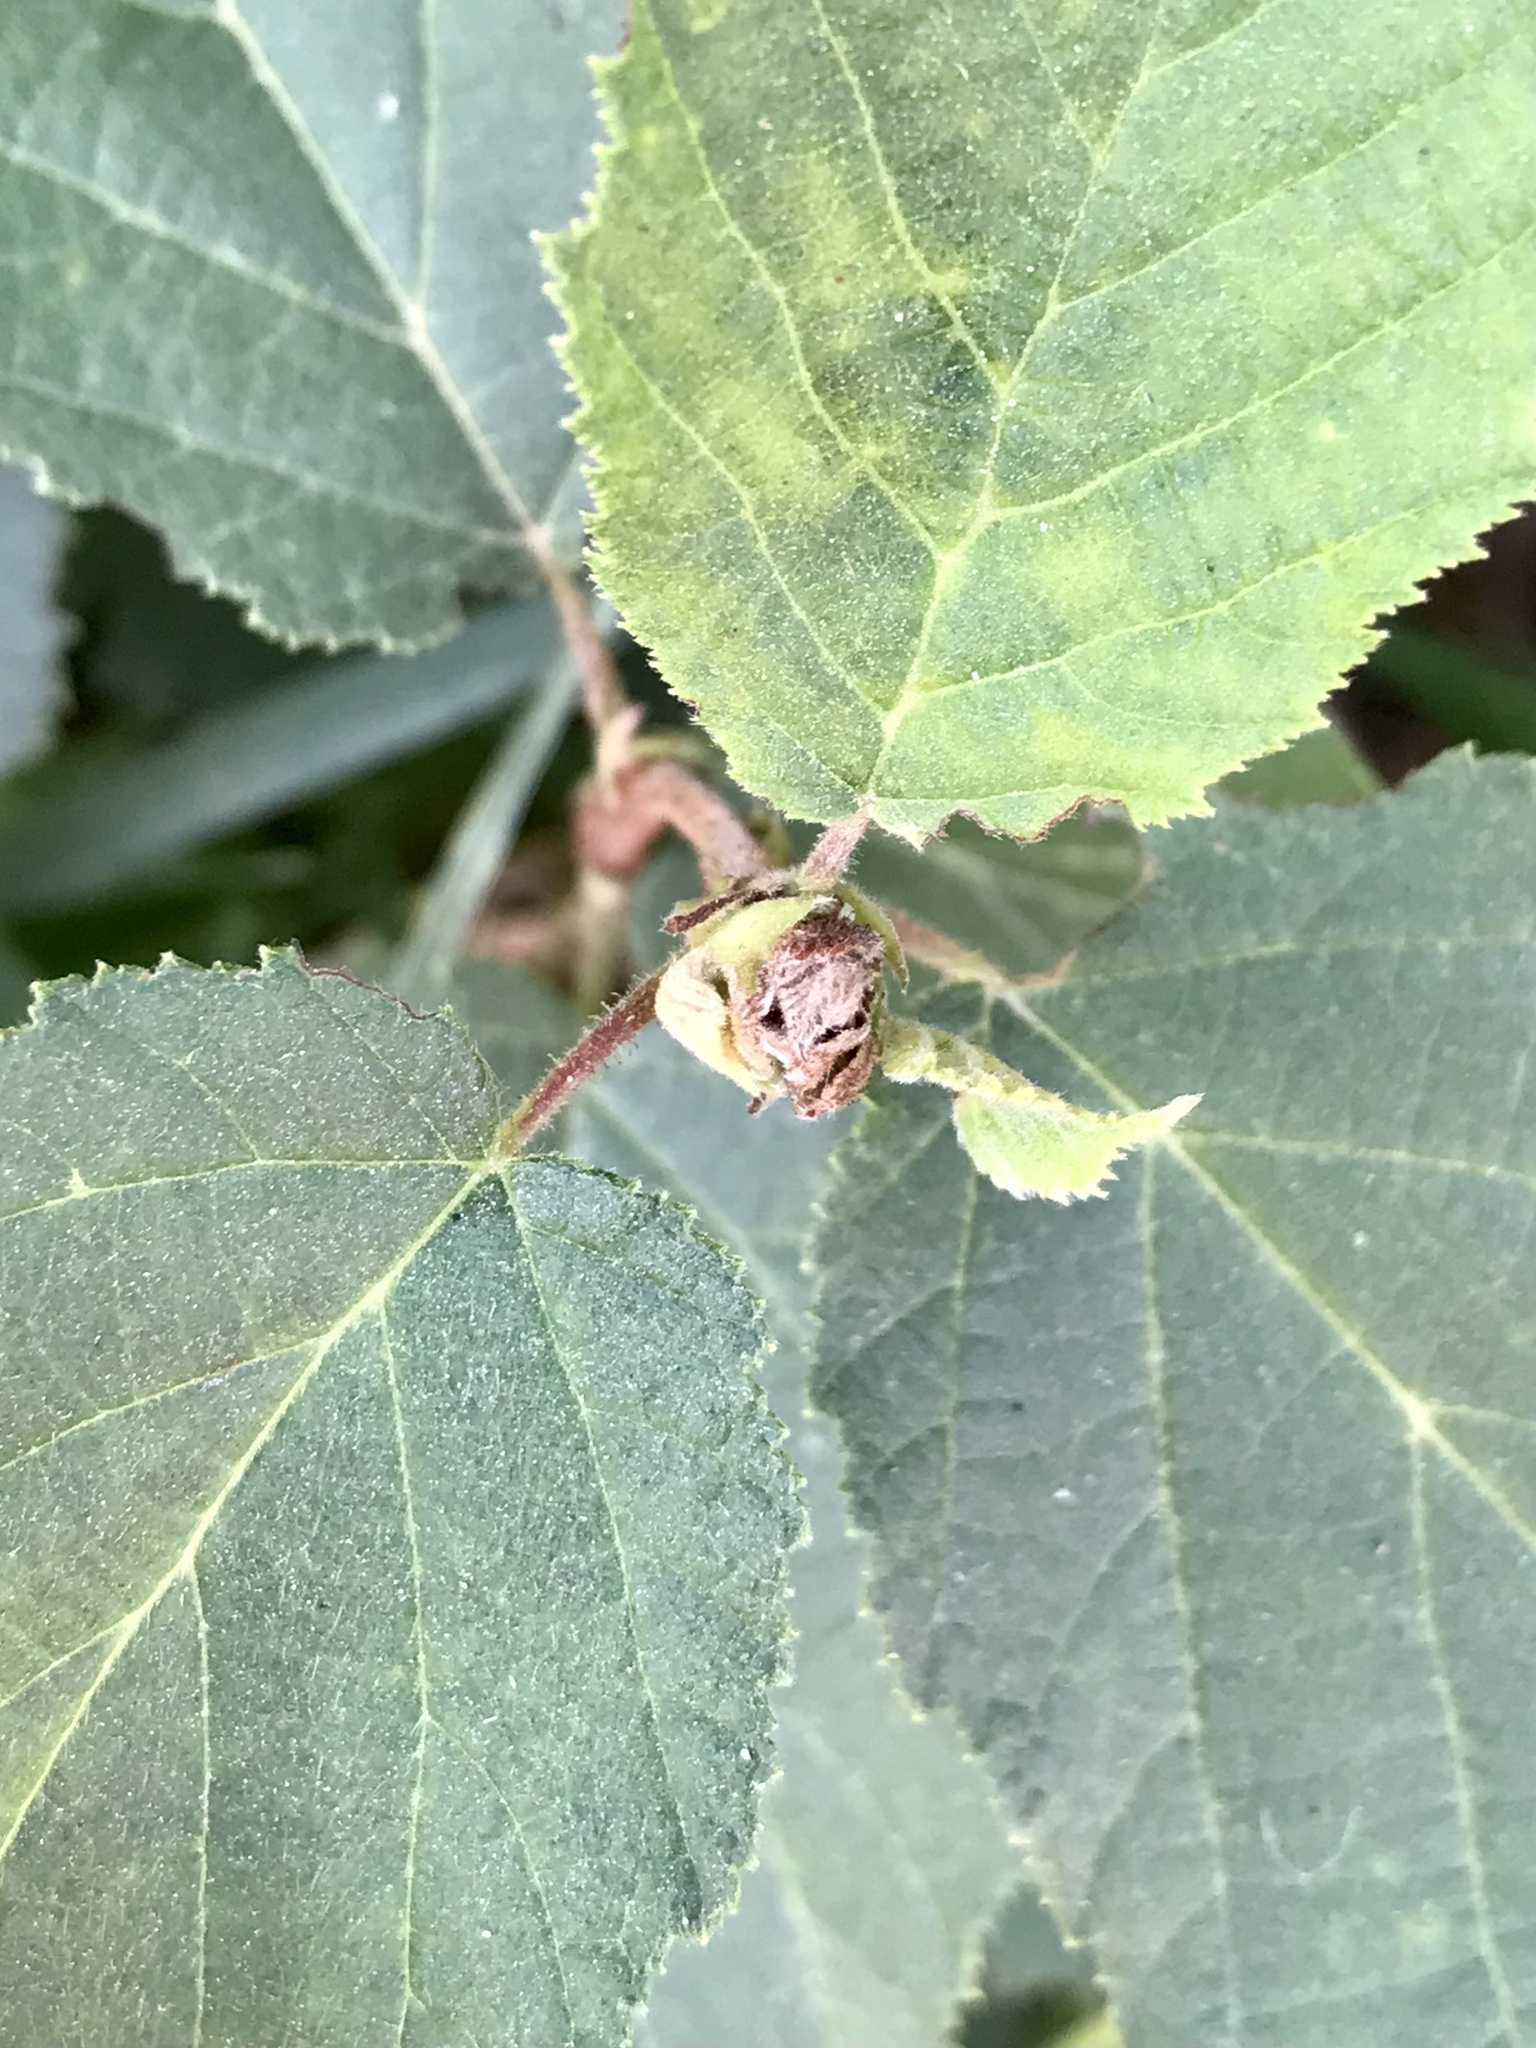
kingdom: Animalia
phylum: Arthropoda
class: Arachnida
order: Trombidiformes
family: Phytoptidae
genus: Phytoptus
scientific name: Phytoptus avellanae
